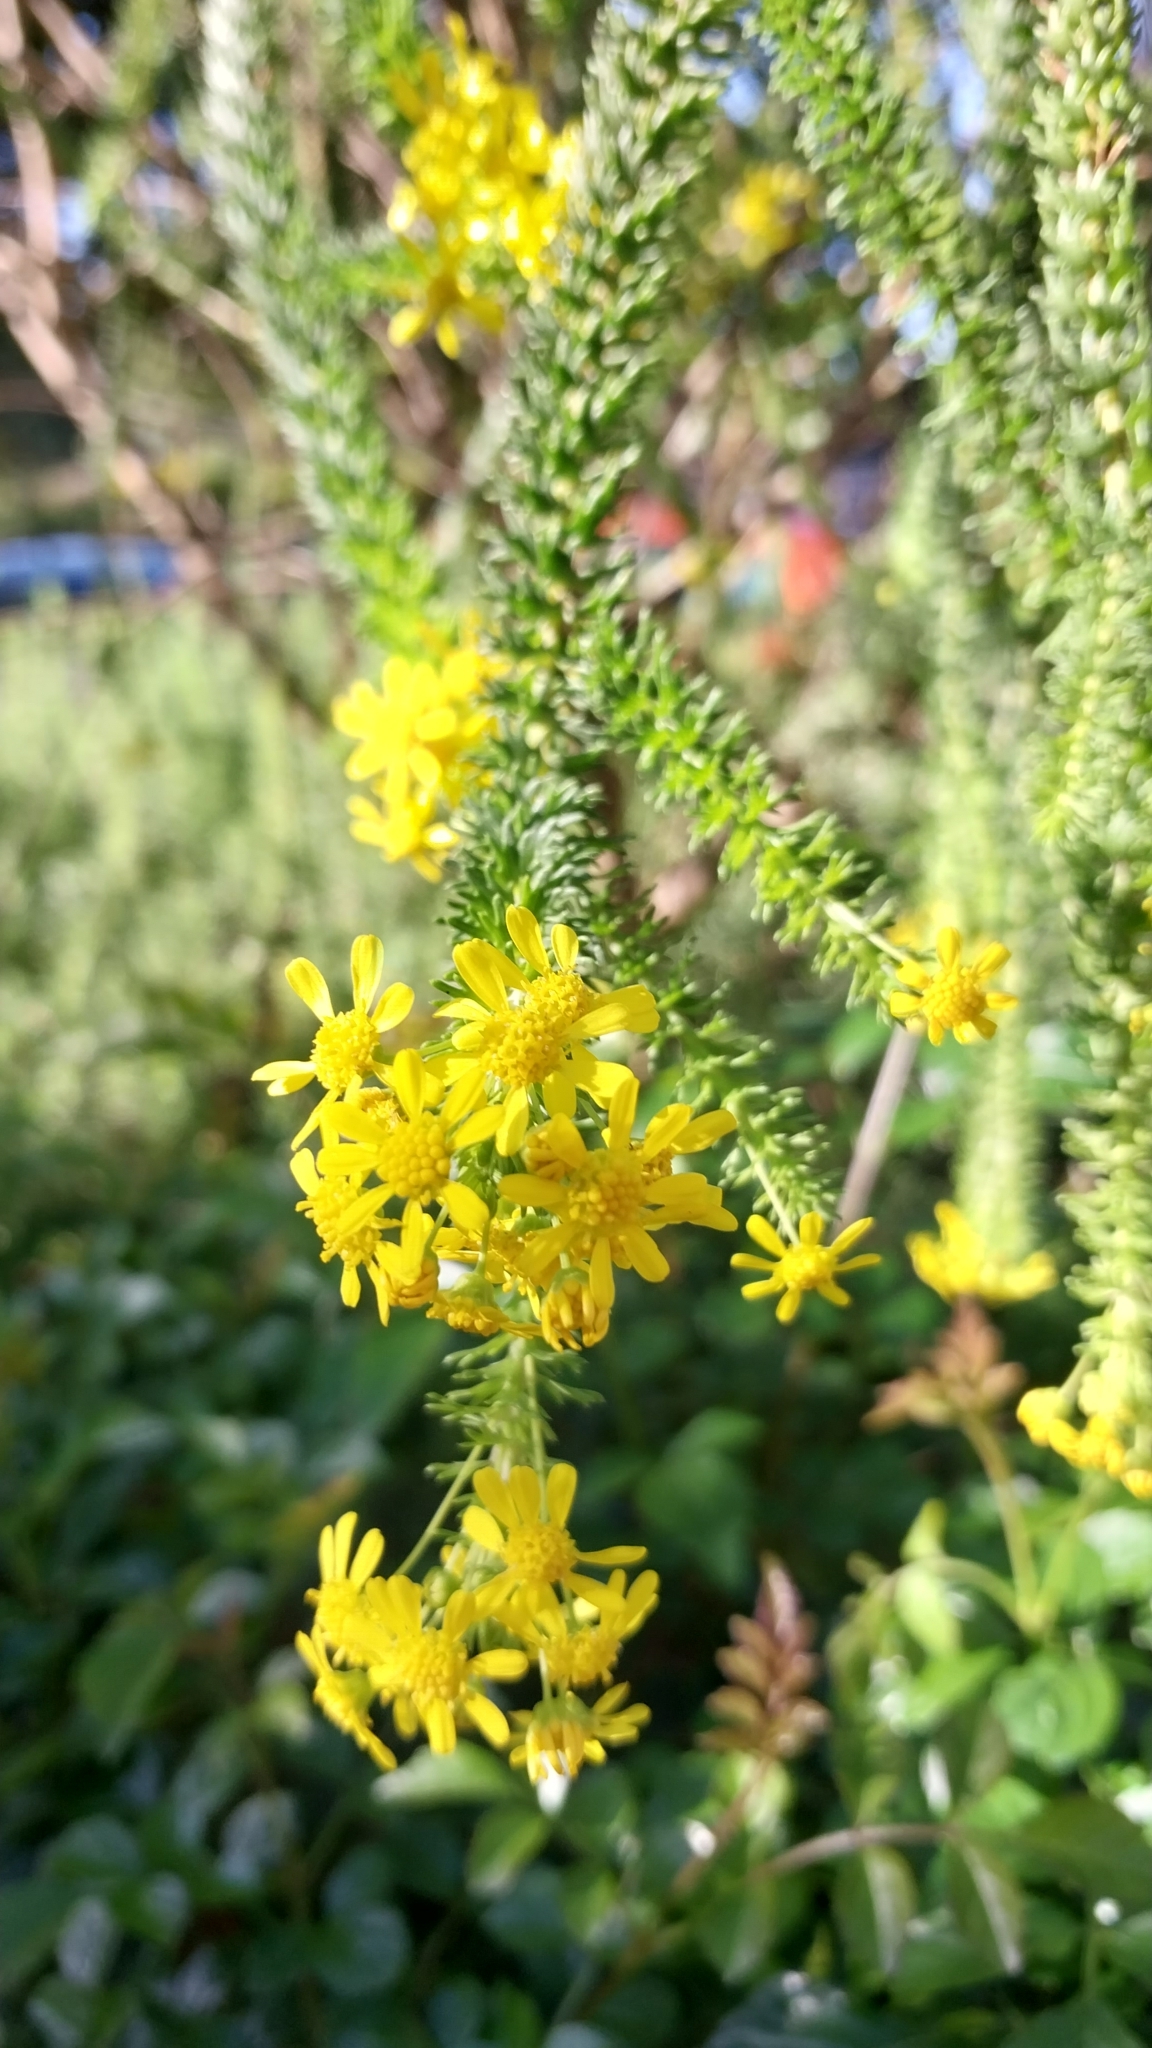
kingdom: Plantae
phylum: Tracheophyta
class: Magnoliopsida
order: Asterales
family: Asteraceae
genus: Euryops
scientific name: Euryops virgineus
